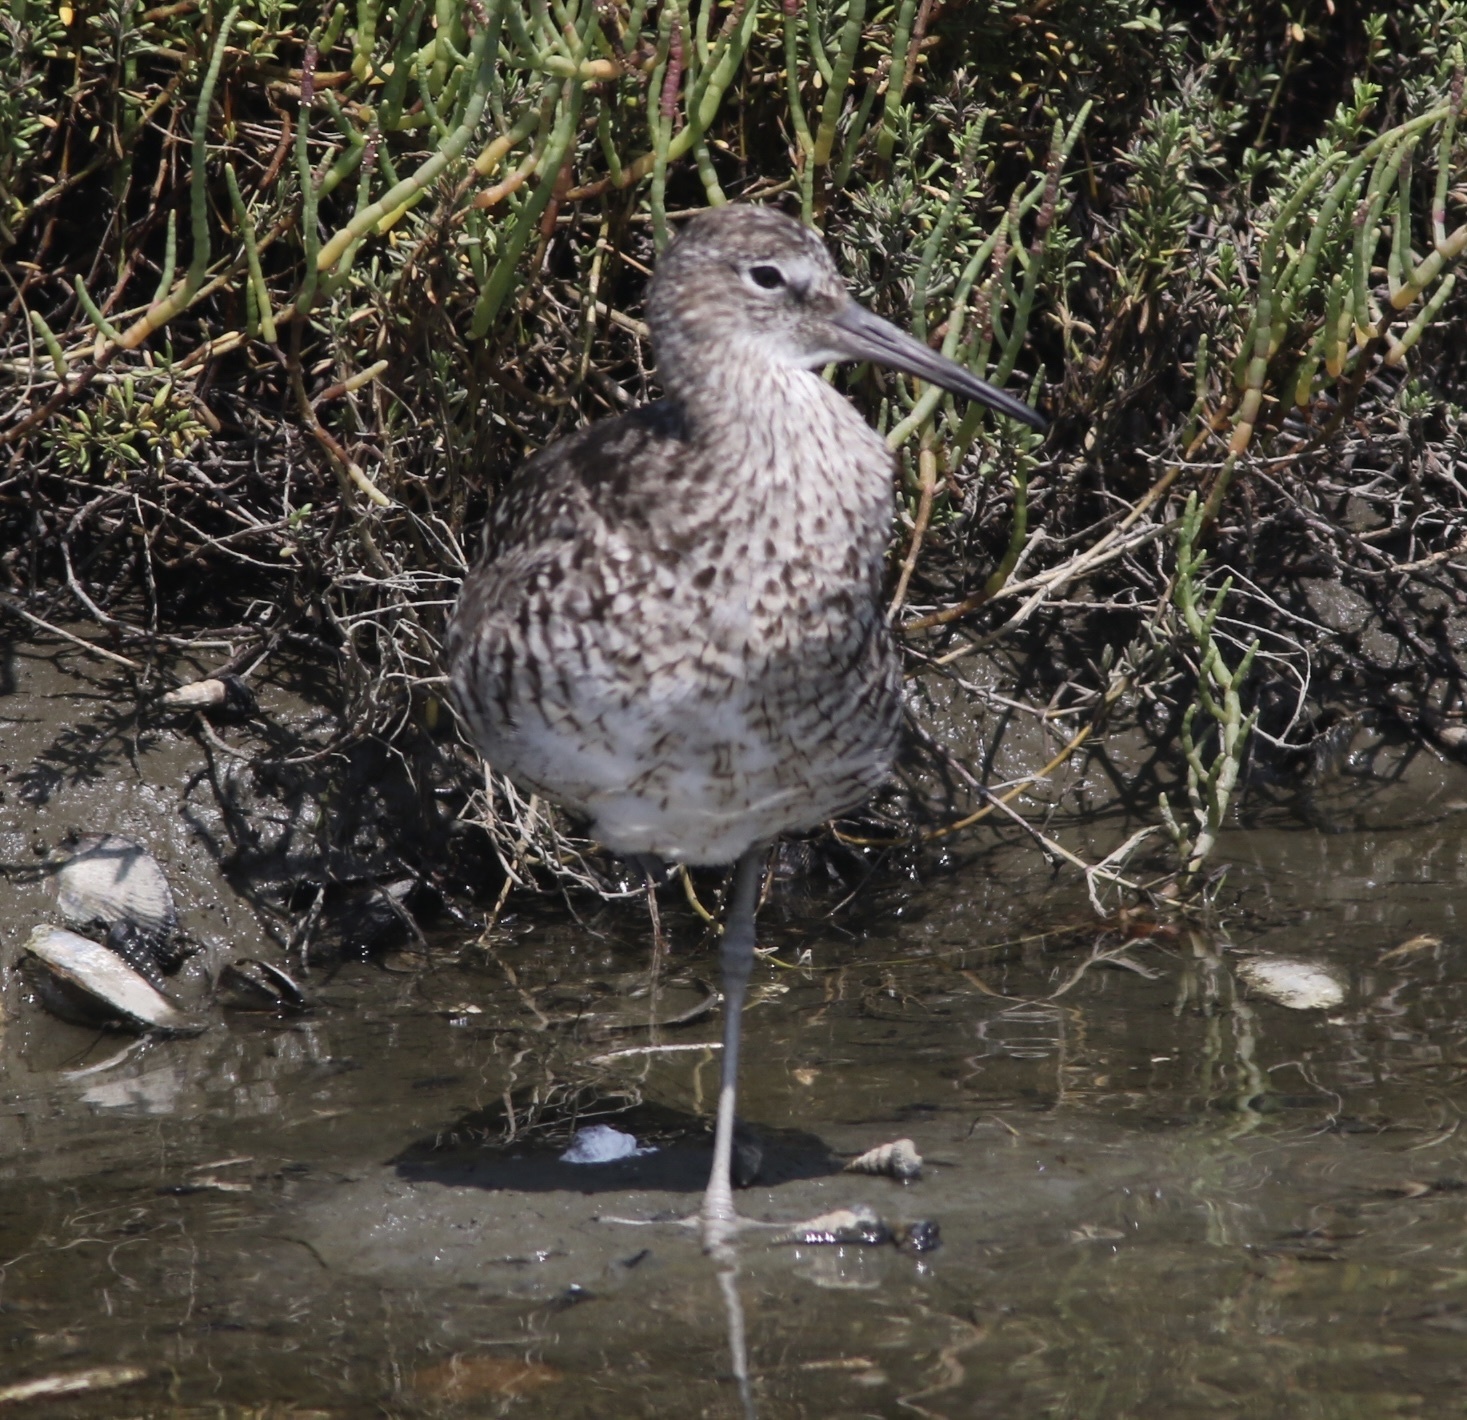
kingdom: Animalia
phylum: Chordata
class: Aves
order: Charadriiformes
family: Scolopacidae
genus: Tringa
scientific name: Tringa semipalmata
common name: Willet
